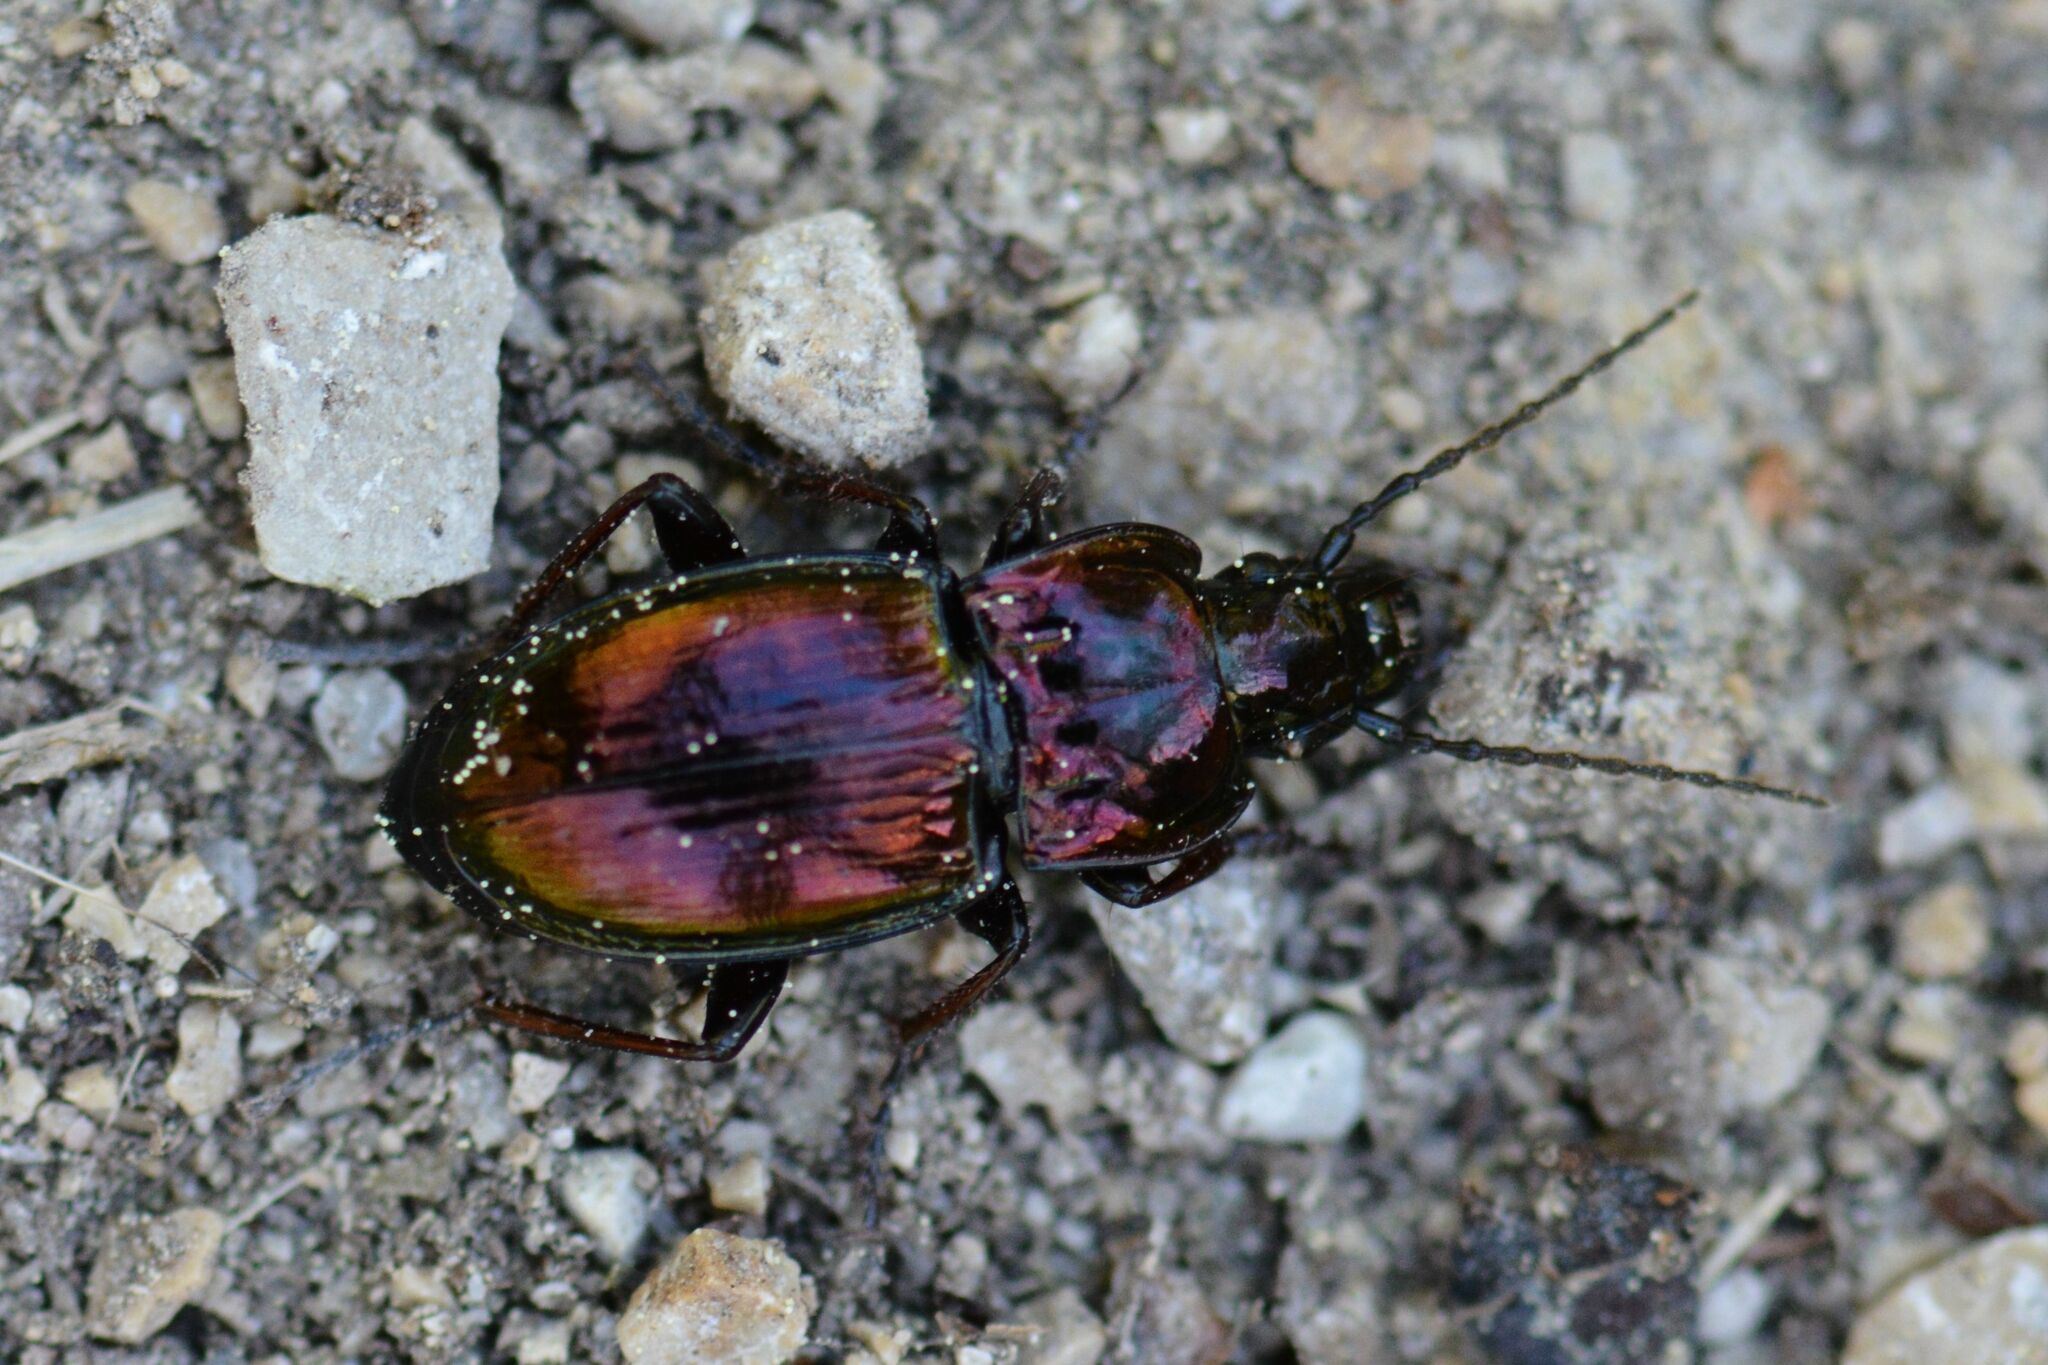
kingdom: Animalia
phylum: Arthropoda
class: Insecta
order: Coleoptera
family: Carabidae
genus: Pterostichus
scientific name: Pterostichus burmeisteri
